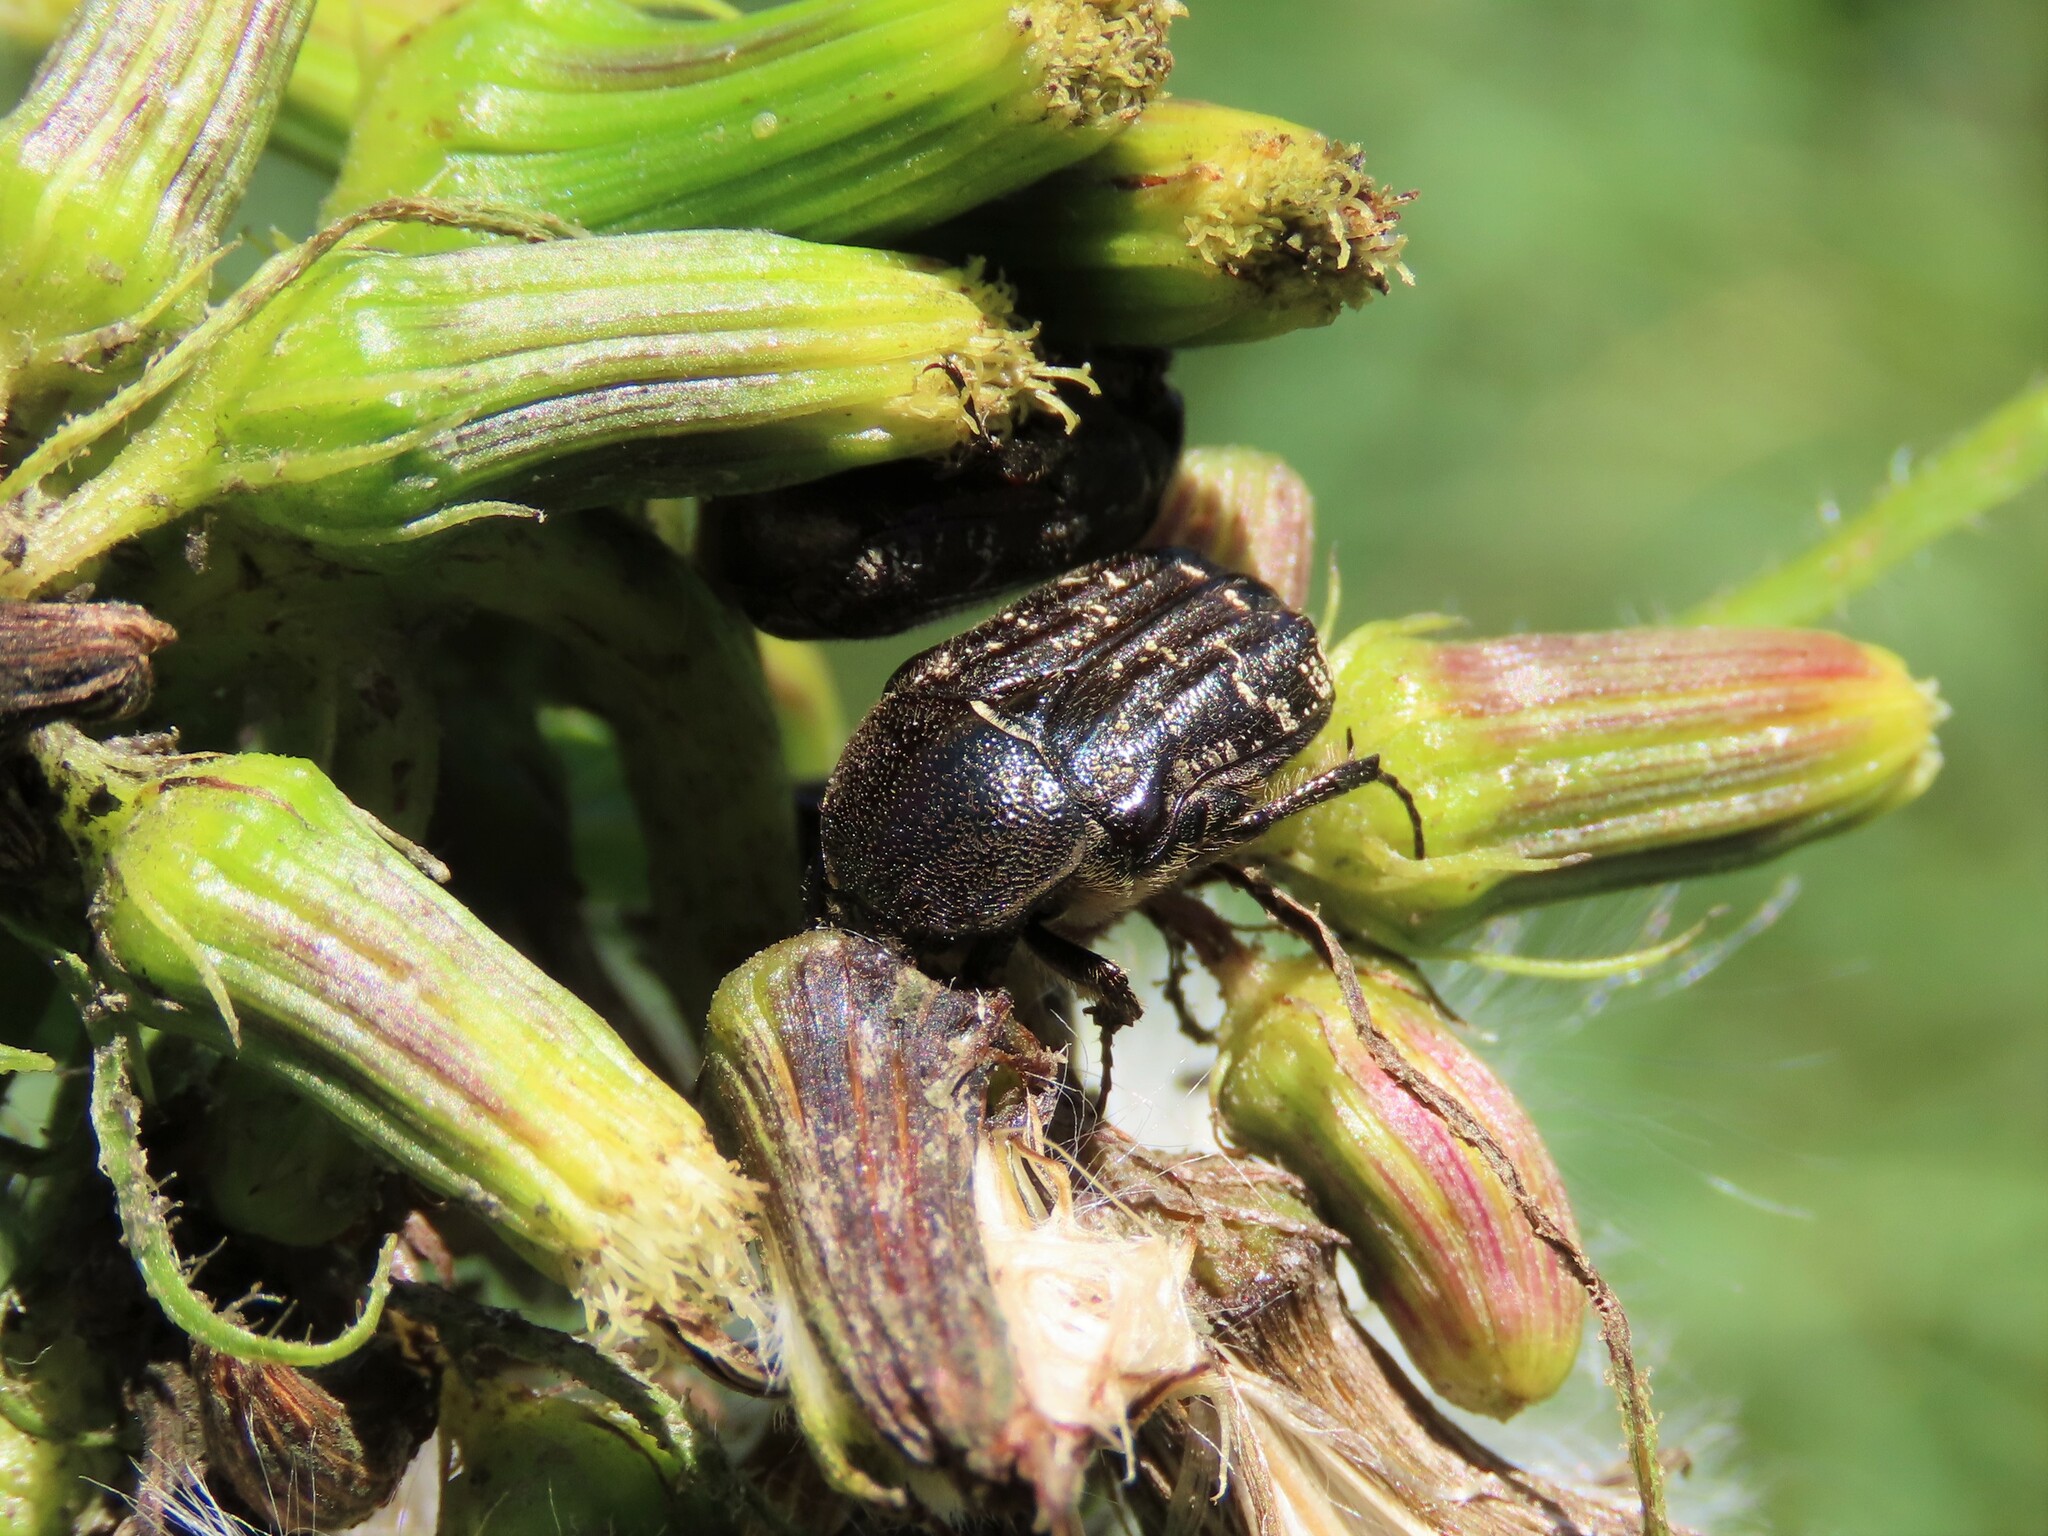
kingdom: Animalia
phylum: Arthropoda
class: Insecta
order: Coleoptera
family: Scarabaeidae
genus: Euphoria
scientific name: Euphoria sepulcralis
